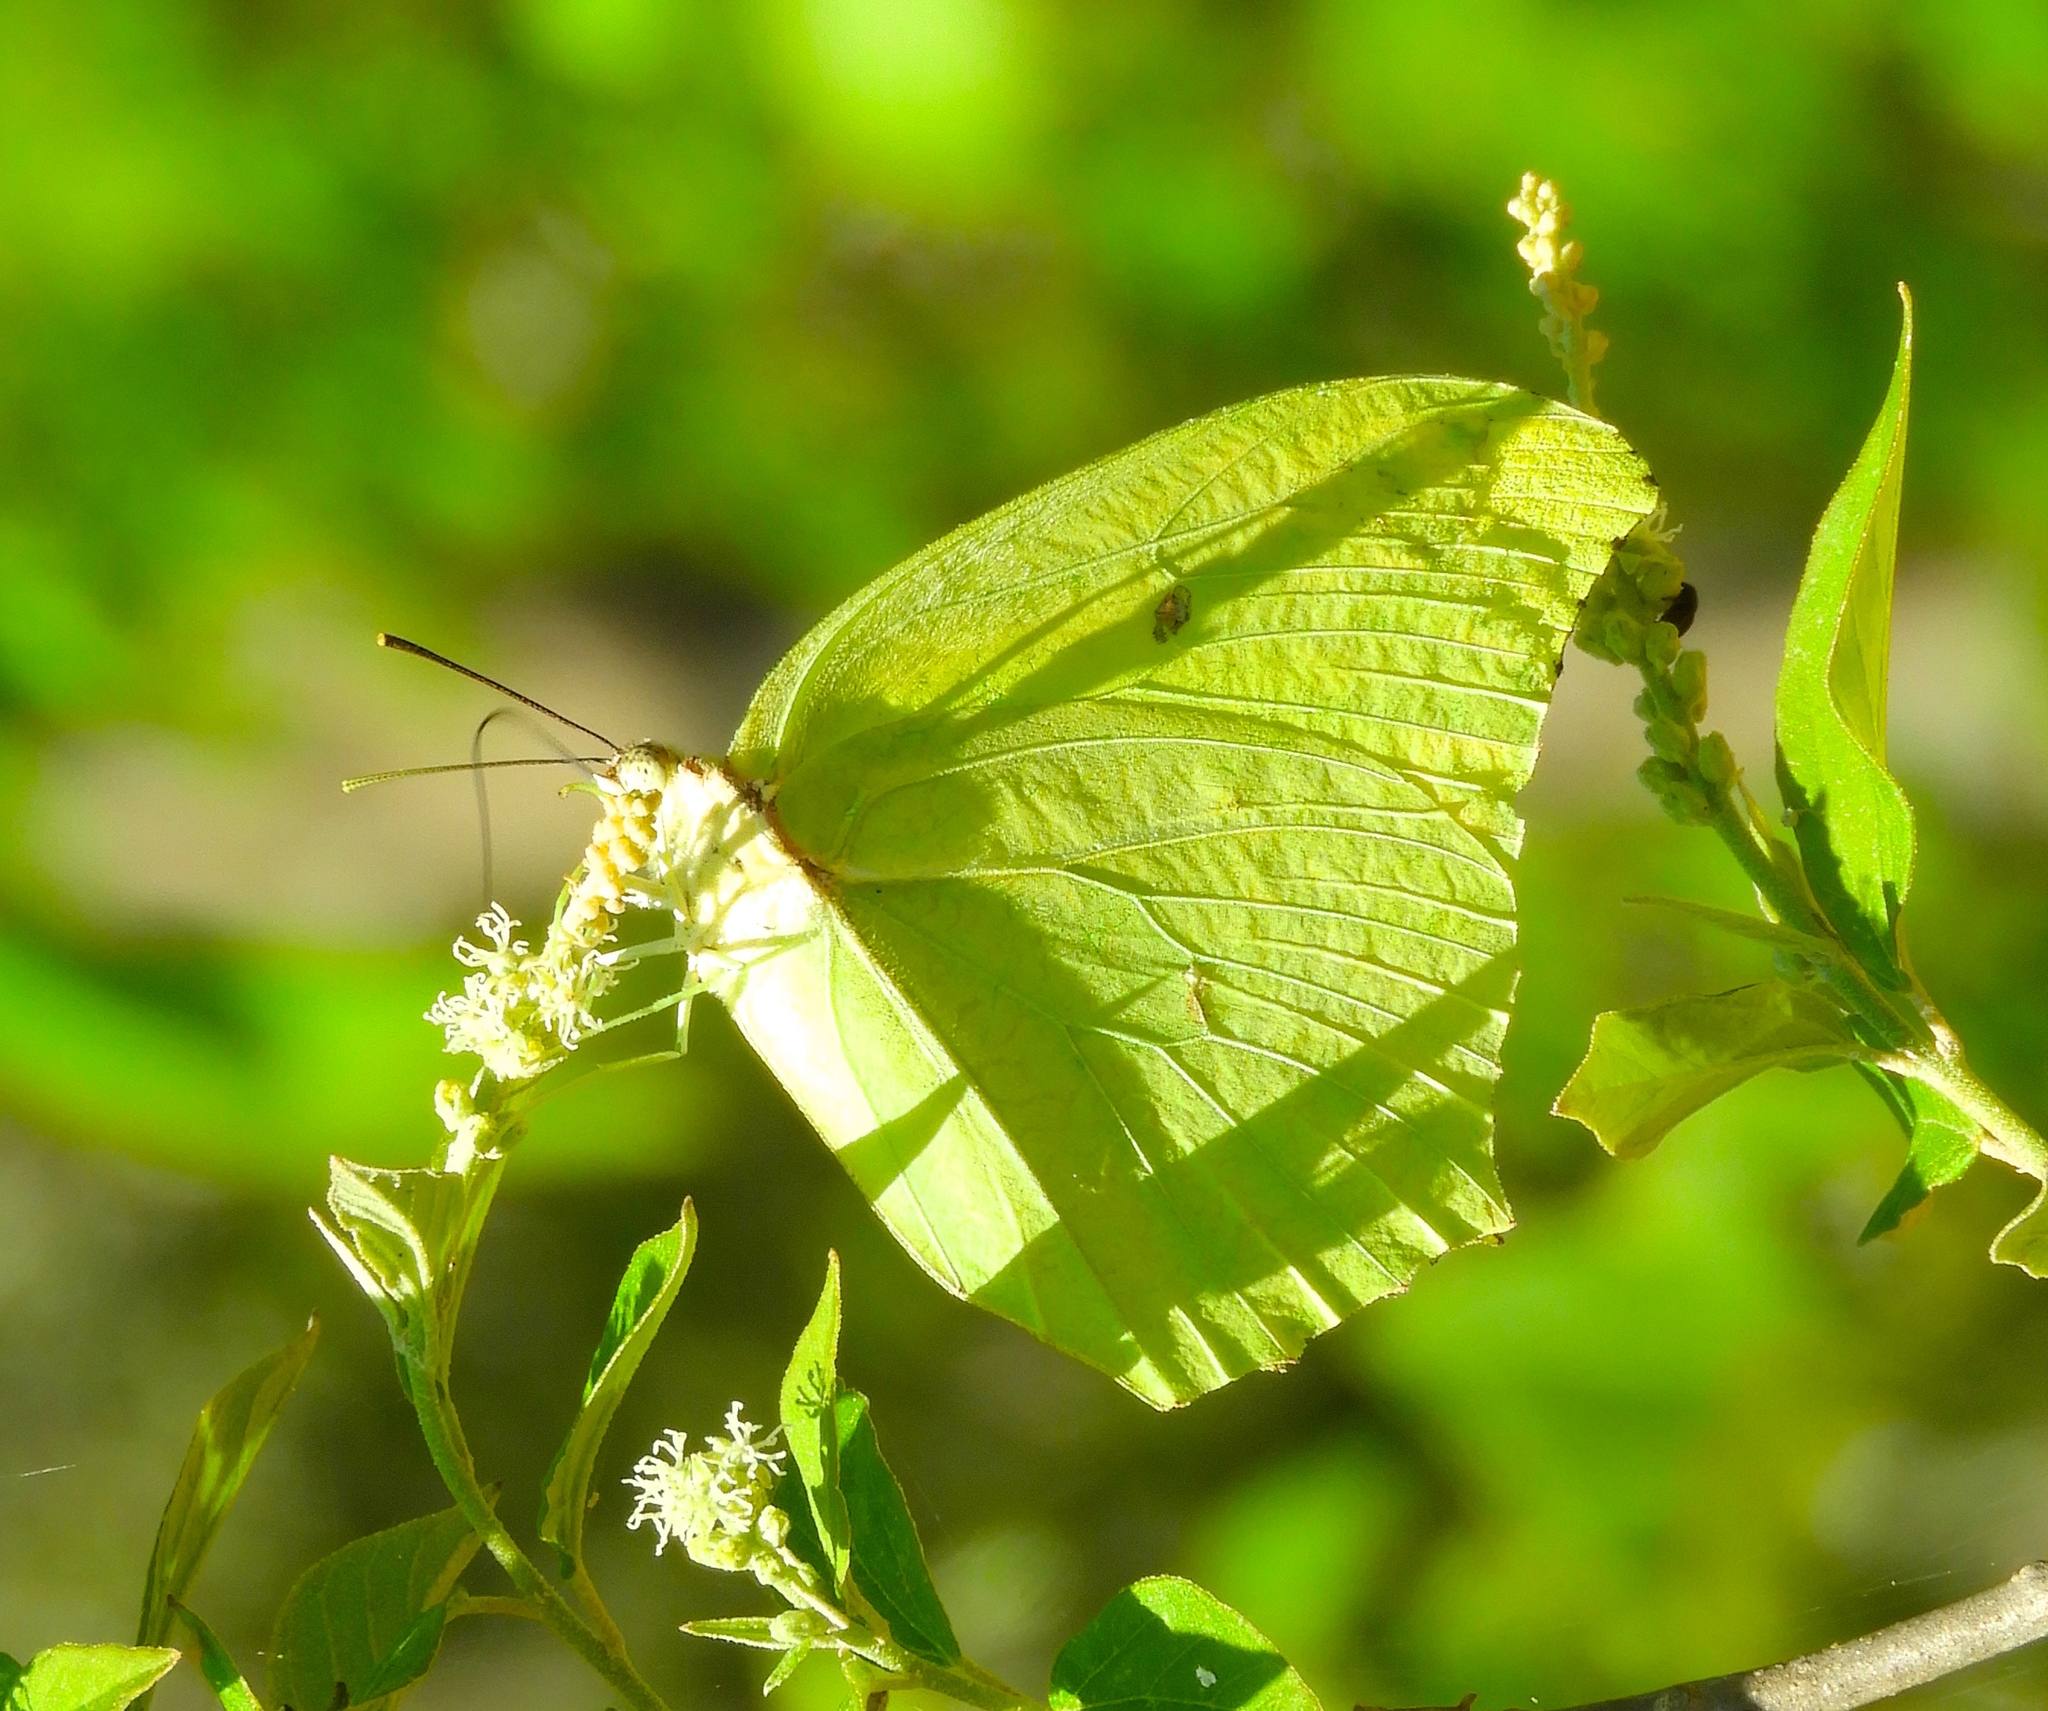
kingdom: Animalia
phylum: Arthropoda
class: Insecta
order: Lepidoptera
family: Pieridae
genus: Anteos
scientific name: Anteos maerula
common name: Angled sulphur
